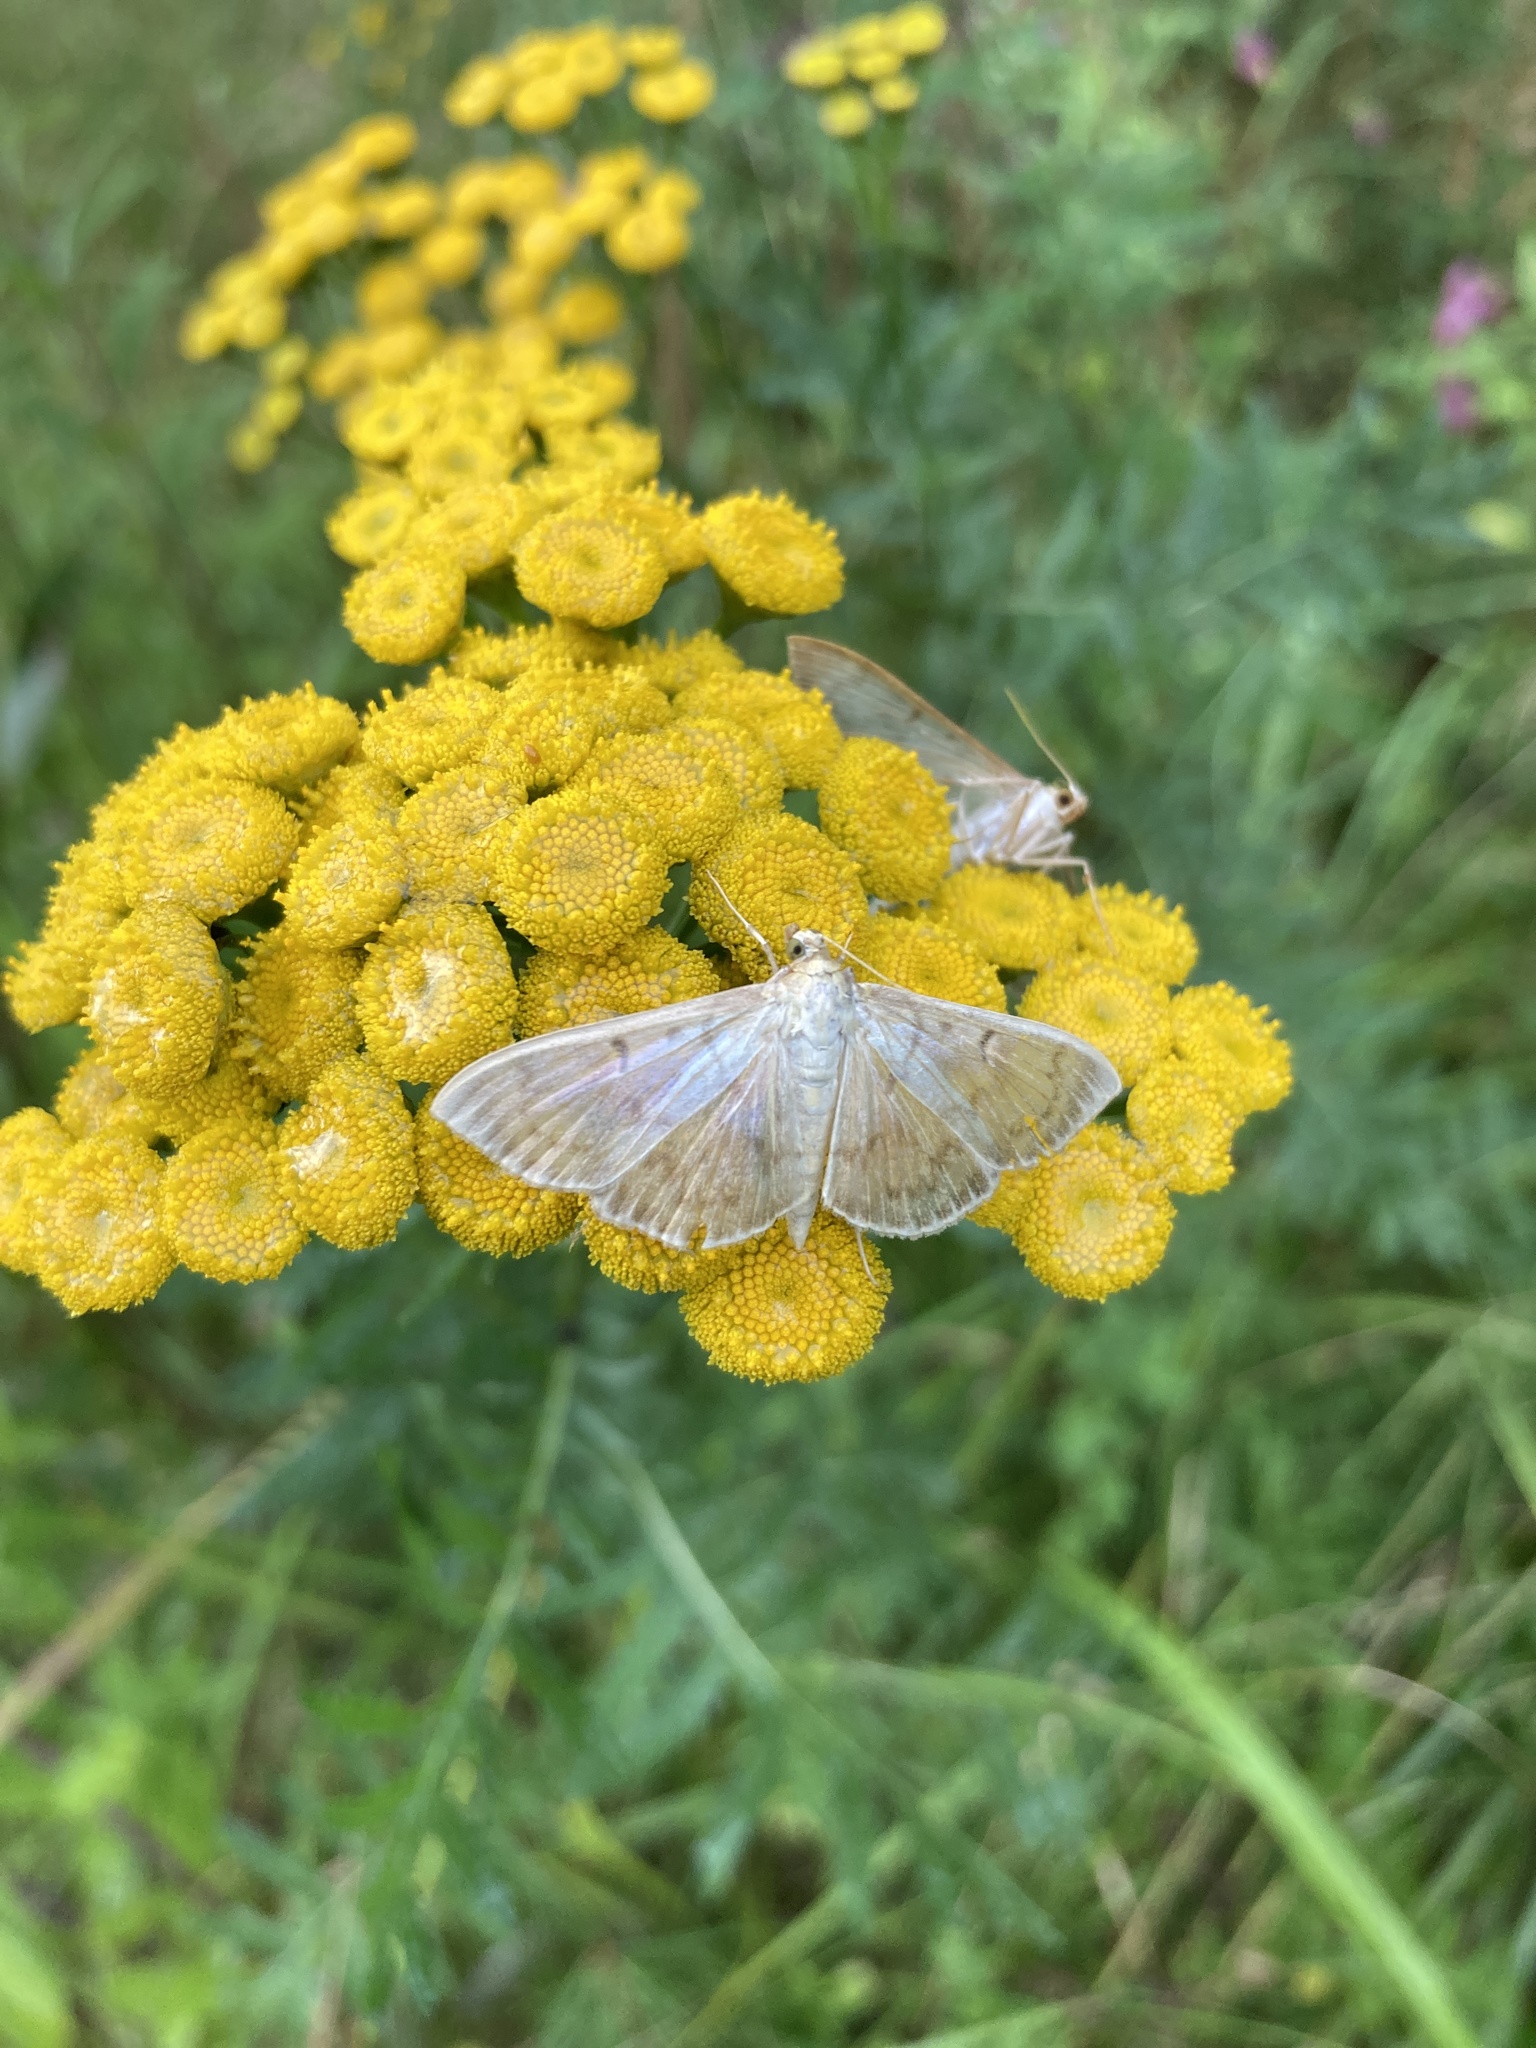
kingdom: Animalia
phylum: Arthropoda
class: Insecta
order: Lepidoptera
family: Crambidae
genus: Patania
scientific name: Patania ruralis
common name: Mother of pearl
